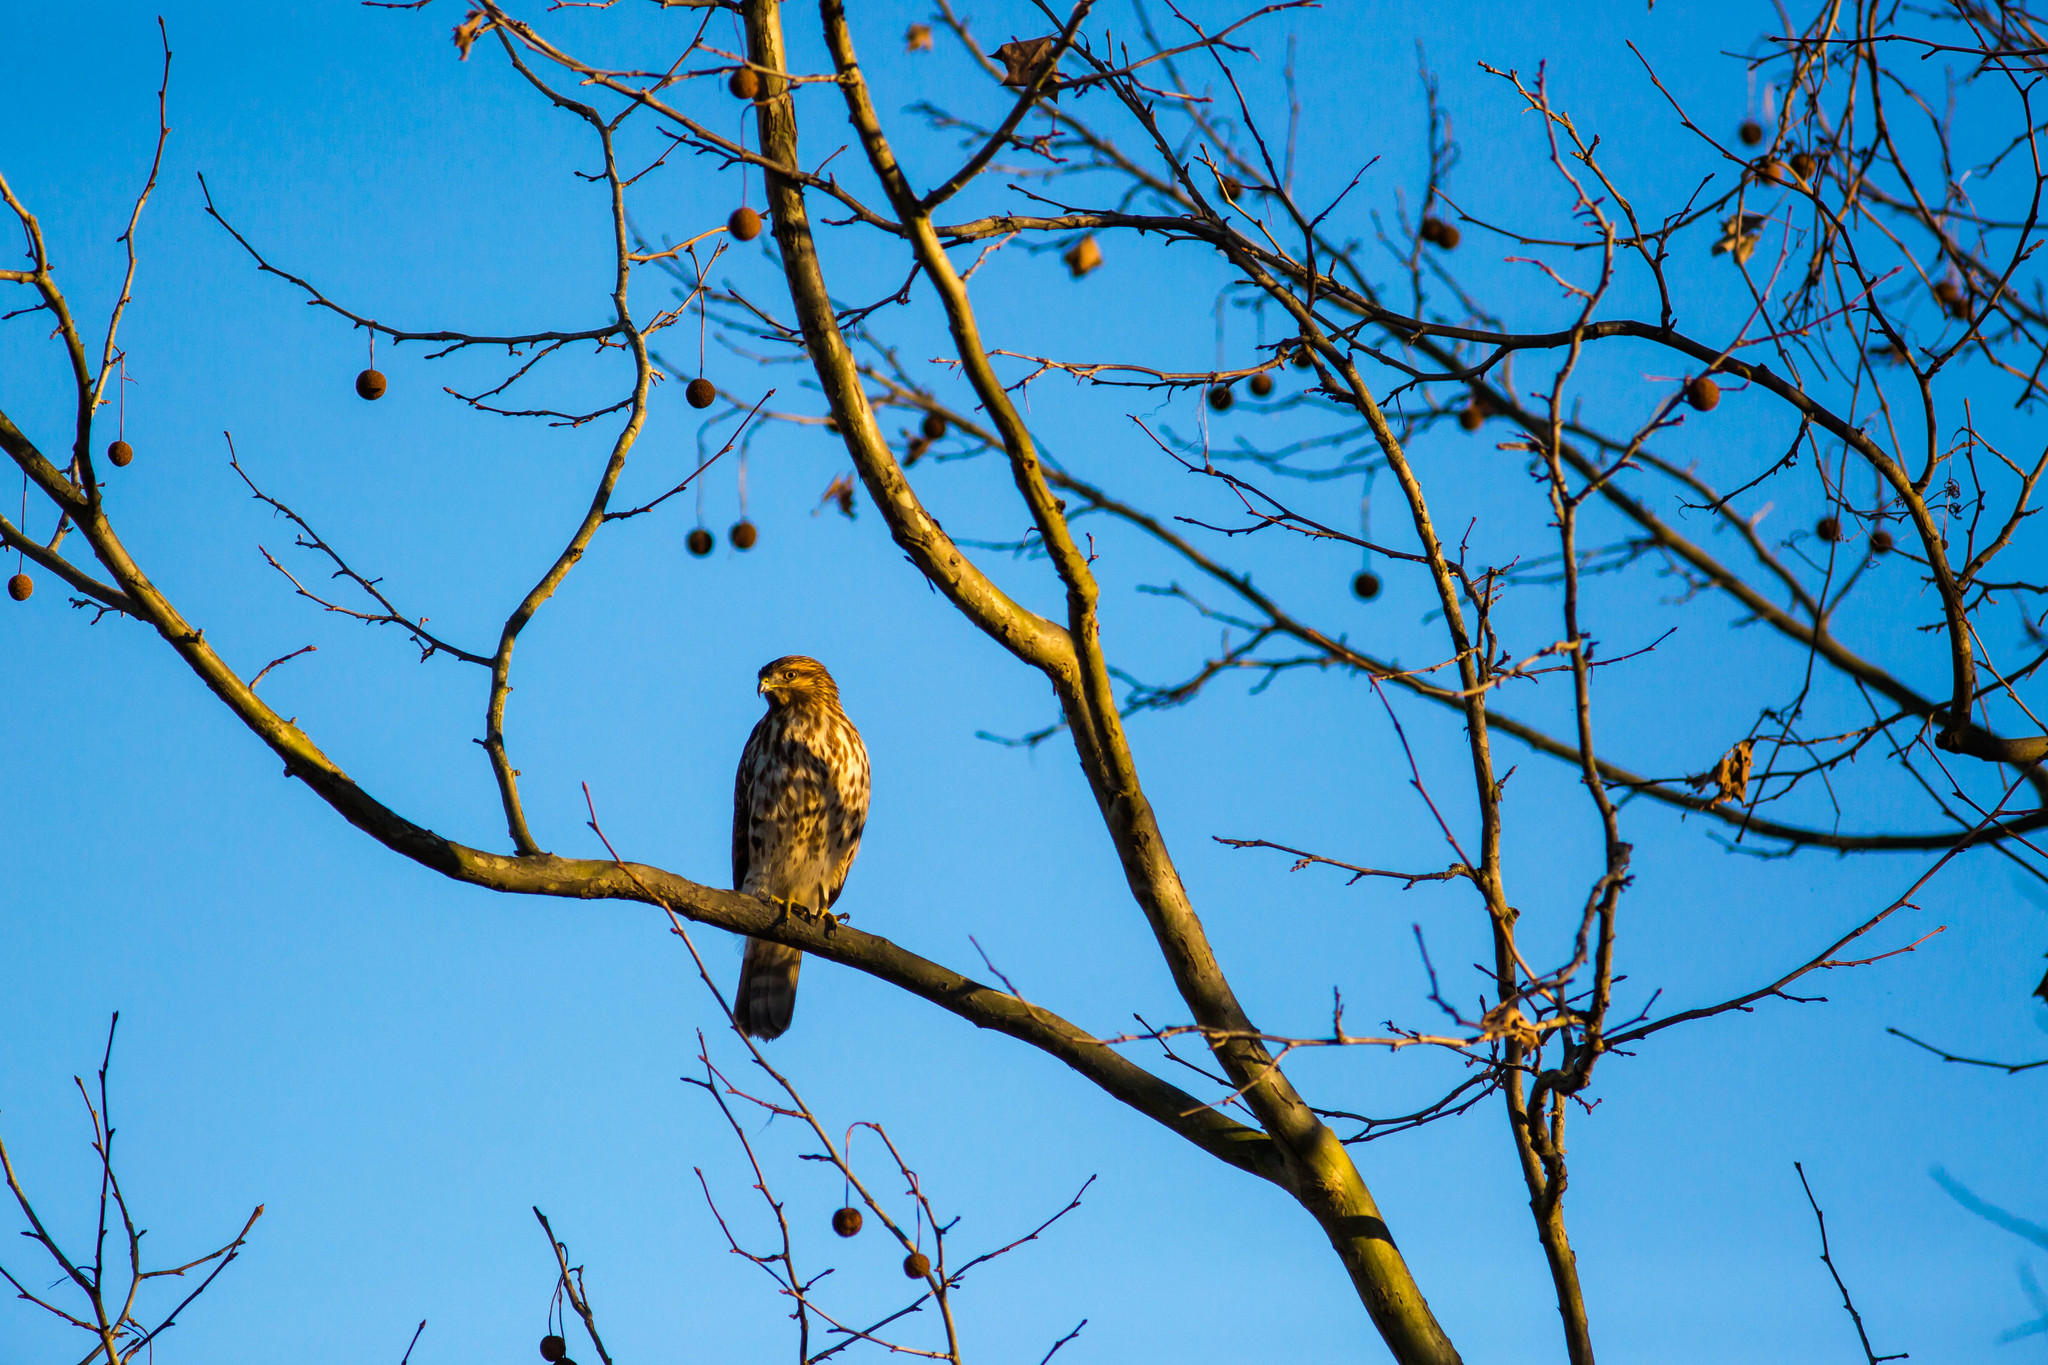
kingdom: Animalia
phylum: Chordata
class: Aves
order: Accipitriformes
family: Accipitridae
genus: Buteo
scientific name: Buteo lineatus
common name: Red-shouldered hawk
